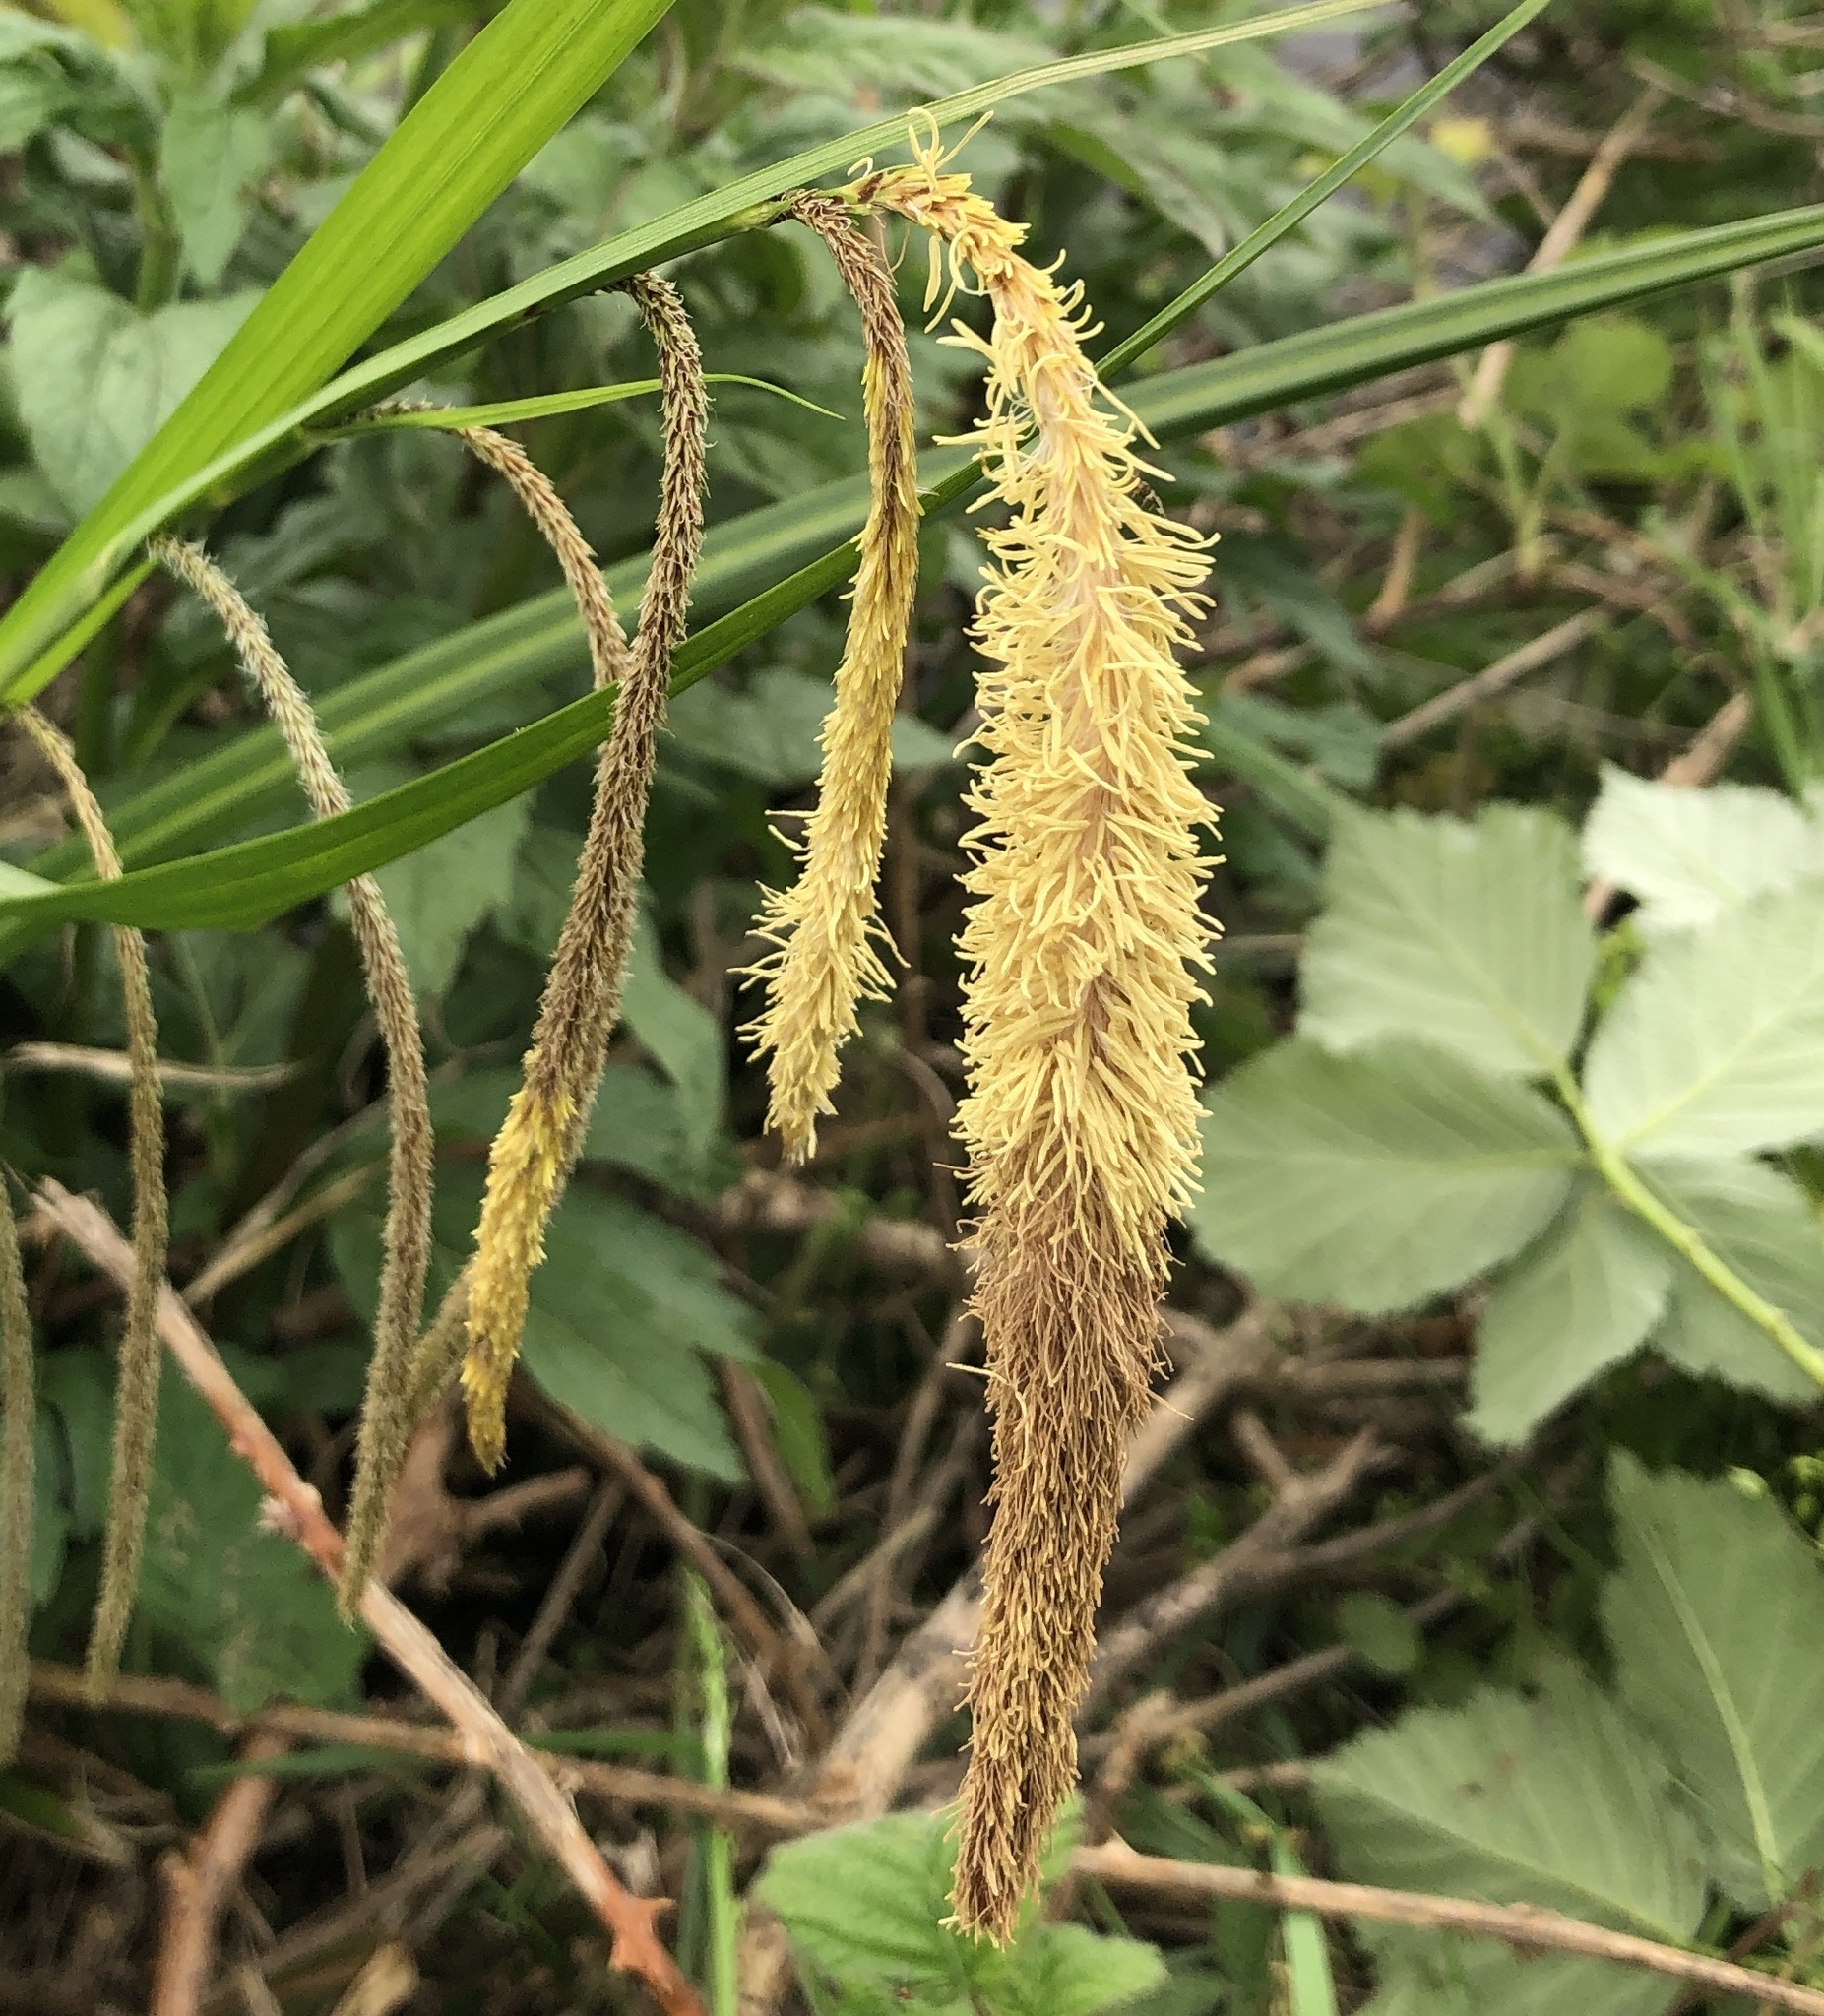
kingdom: Plantae
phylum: Tracheophyta
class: Liliopsida
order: Poales
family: Cyperaceae
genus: Carex
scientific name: Carex pendula
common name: Pendulous sedge
